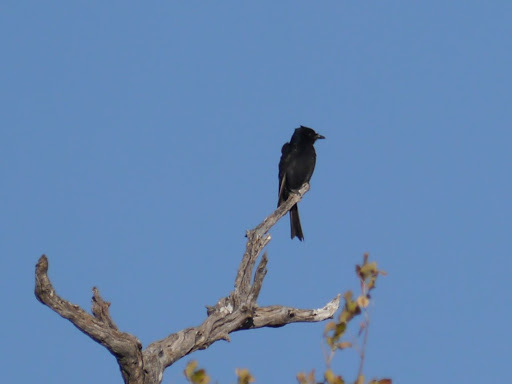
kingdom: Animalia
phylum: Chordata
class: Aves
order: Passeriformes
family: Dicruridae
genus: Dicrurus
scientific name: Dicrurus adsimilis
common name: Fork-tailed drongo
